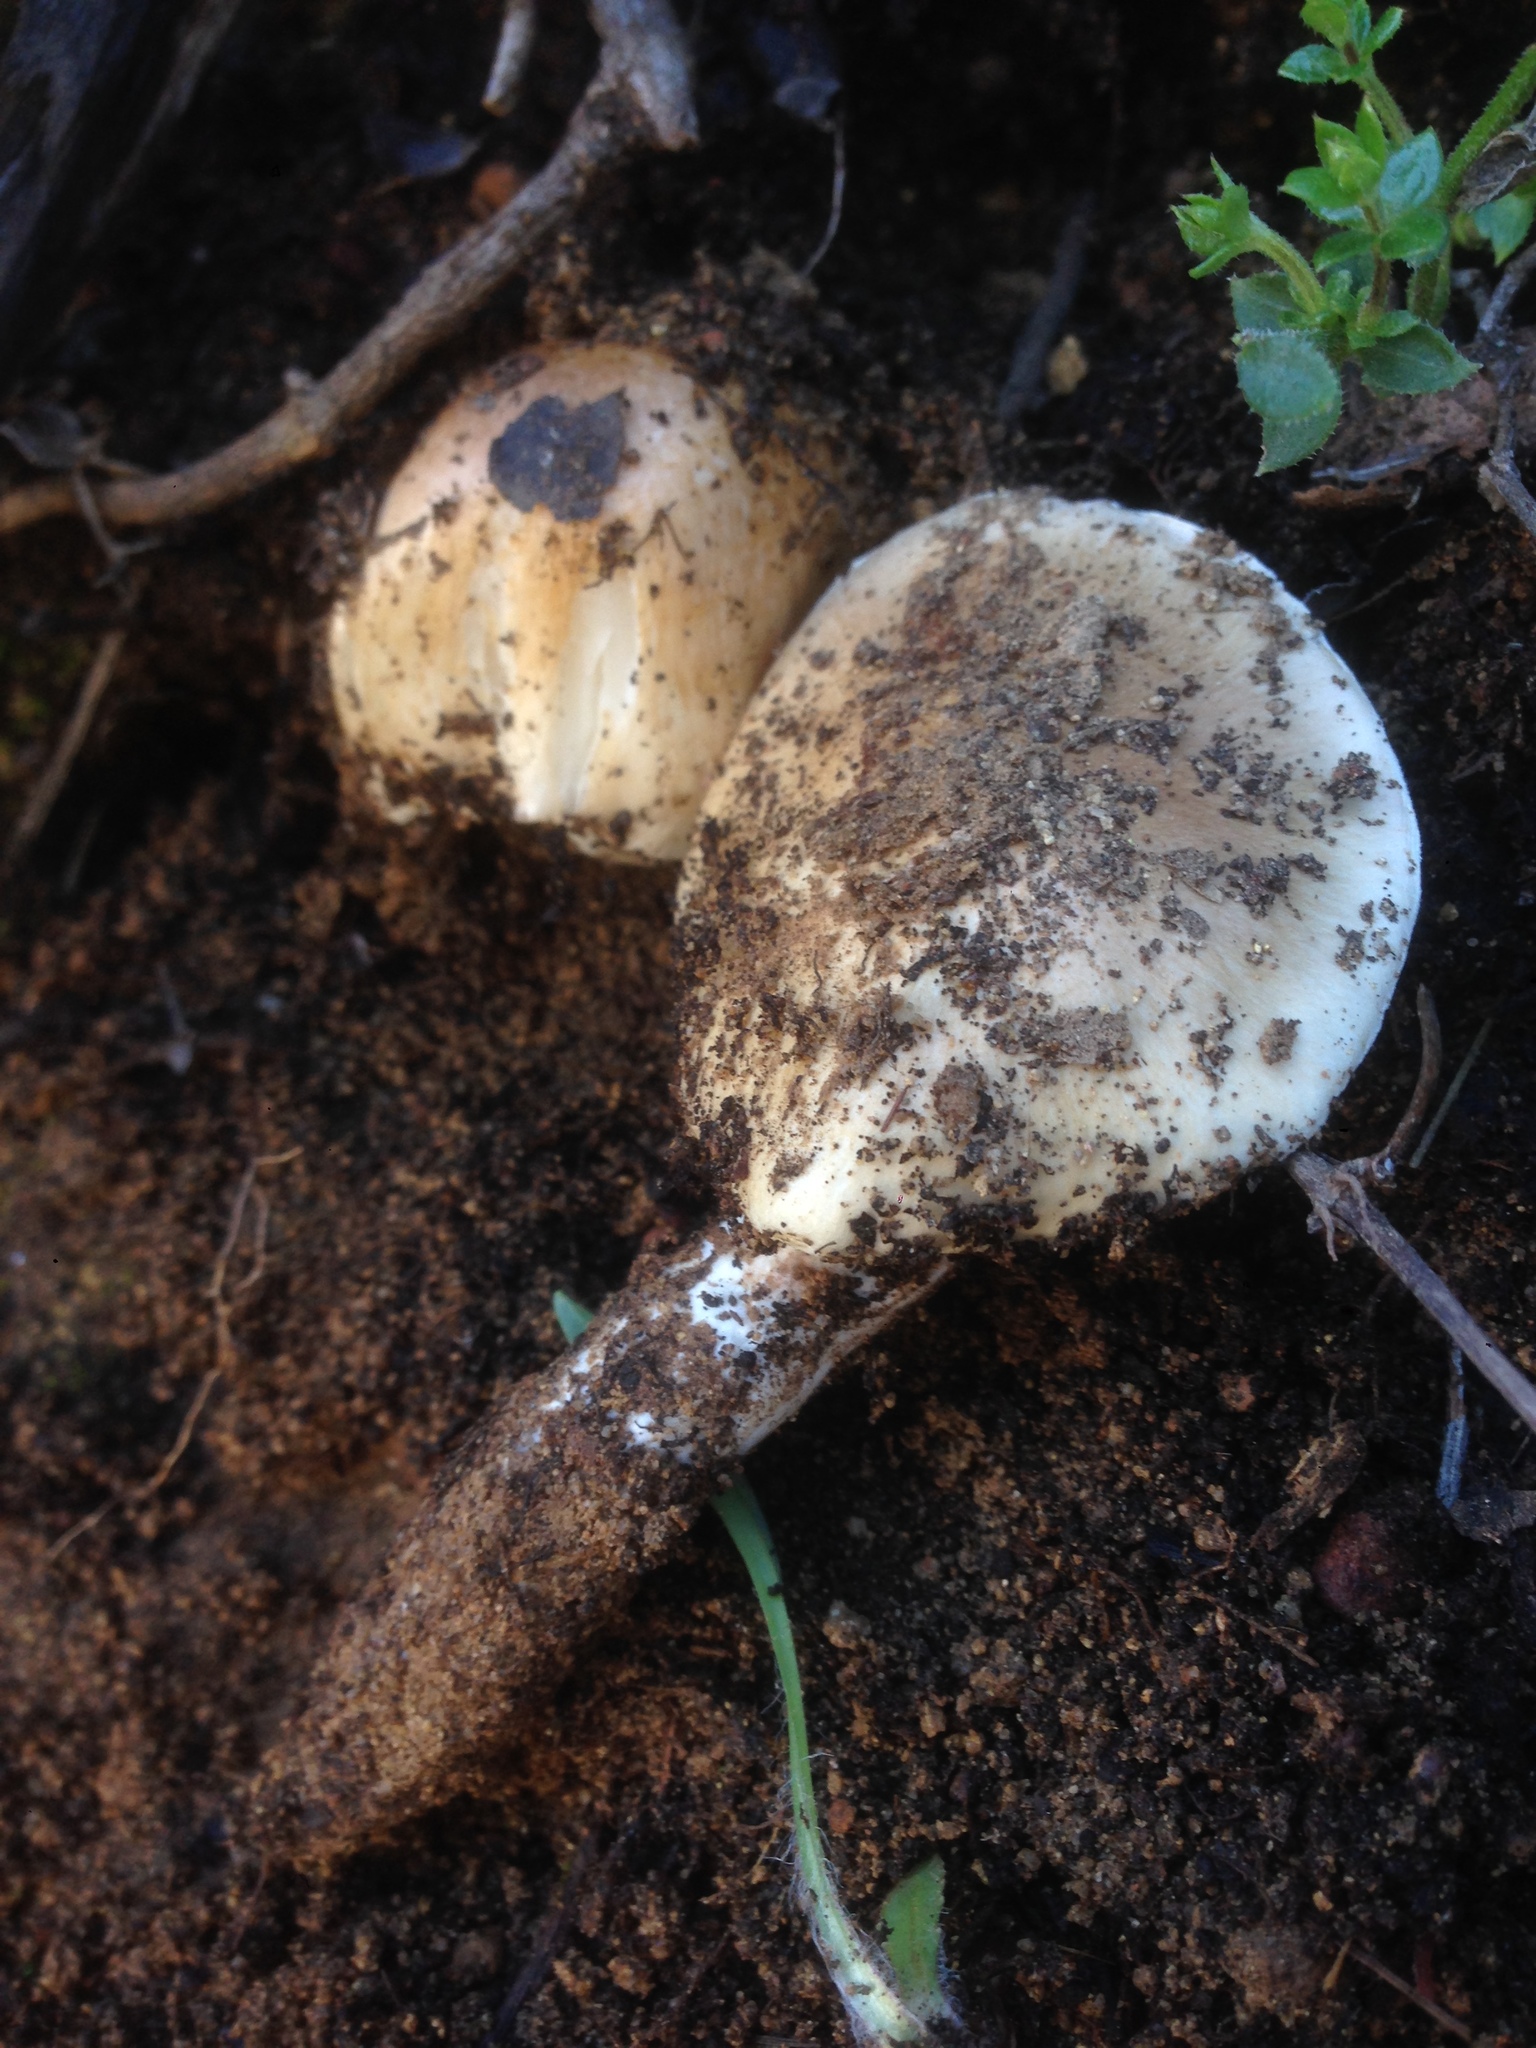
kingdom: Fungi
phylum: Basidiomycota
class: Agaricomycetes
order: Agaricales
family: Hygrophoraceae
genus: Hygrophorus
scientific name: Hygrophorus roseobrunneus
